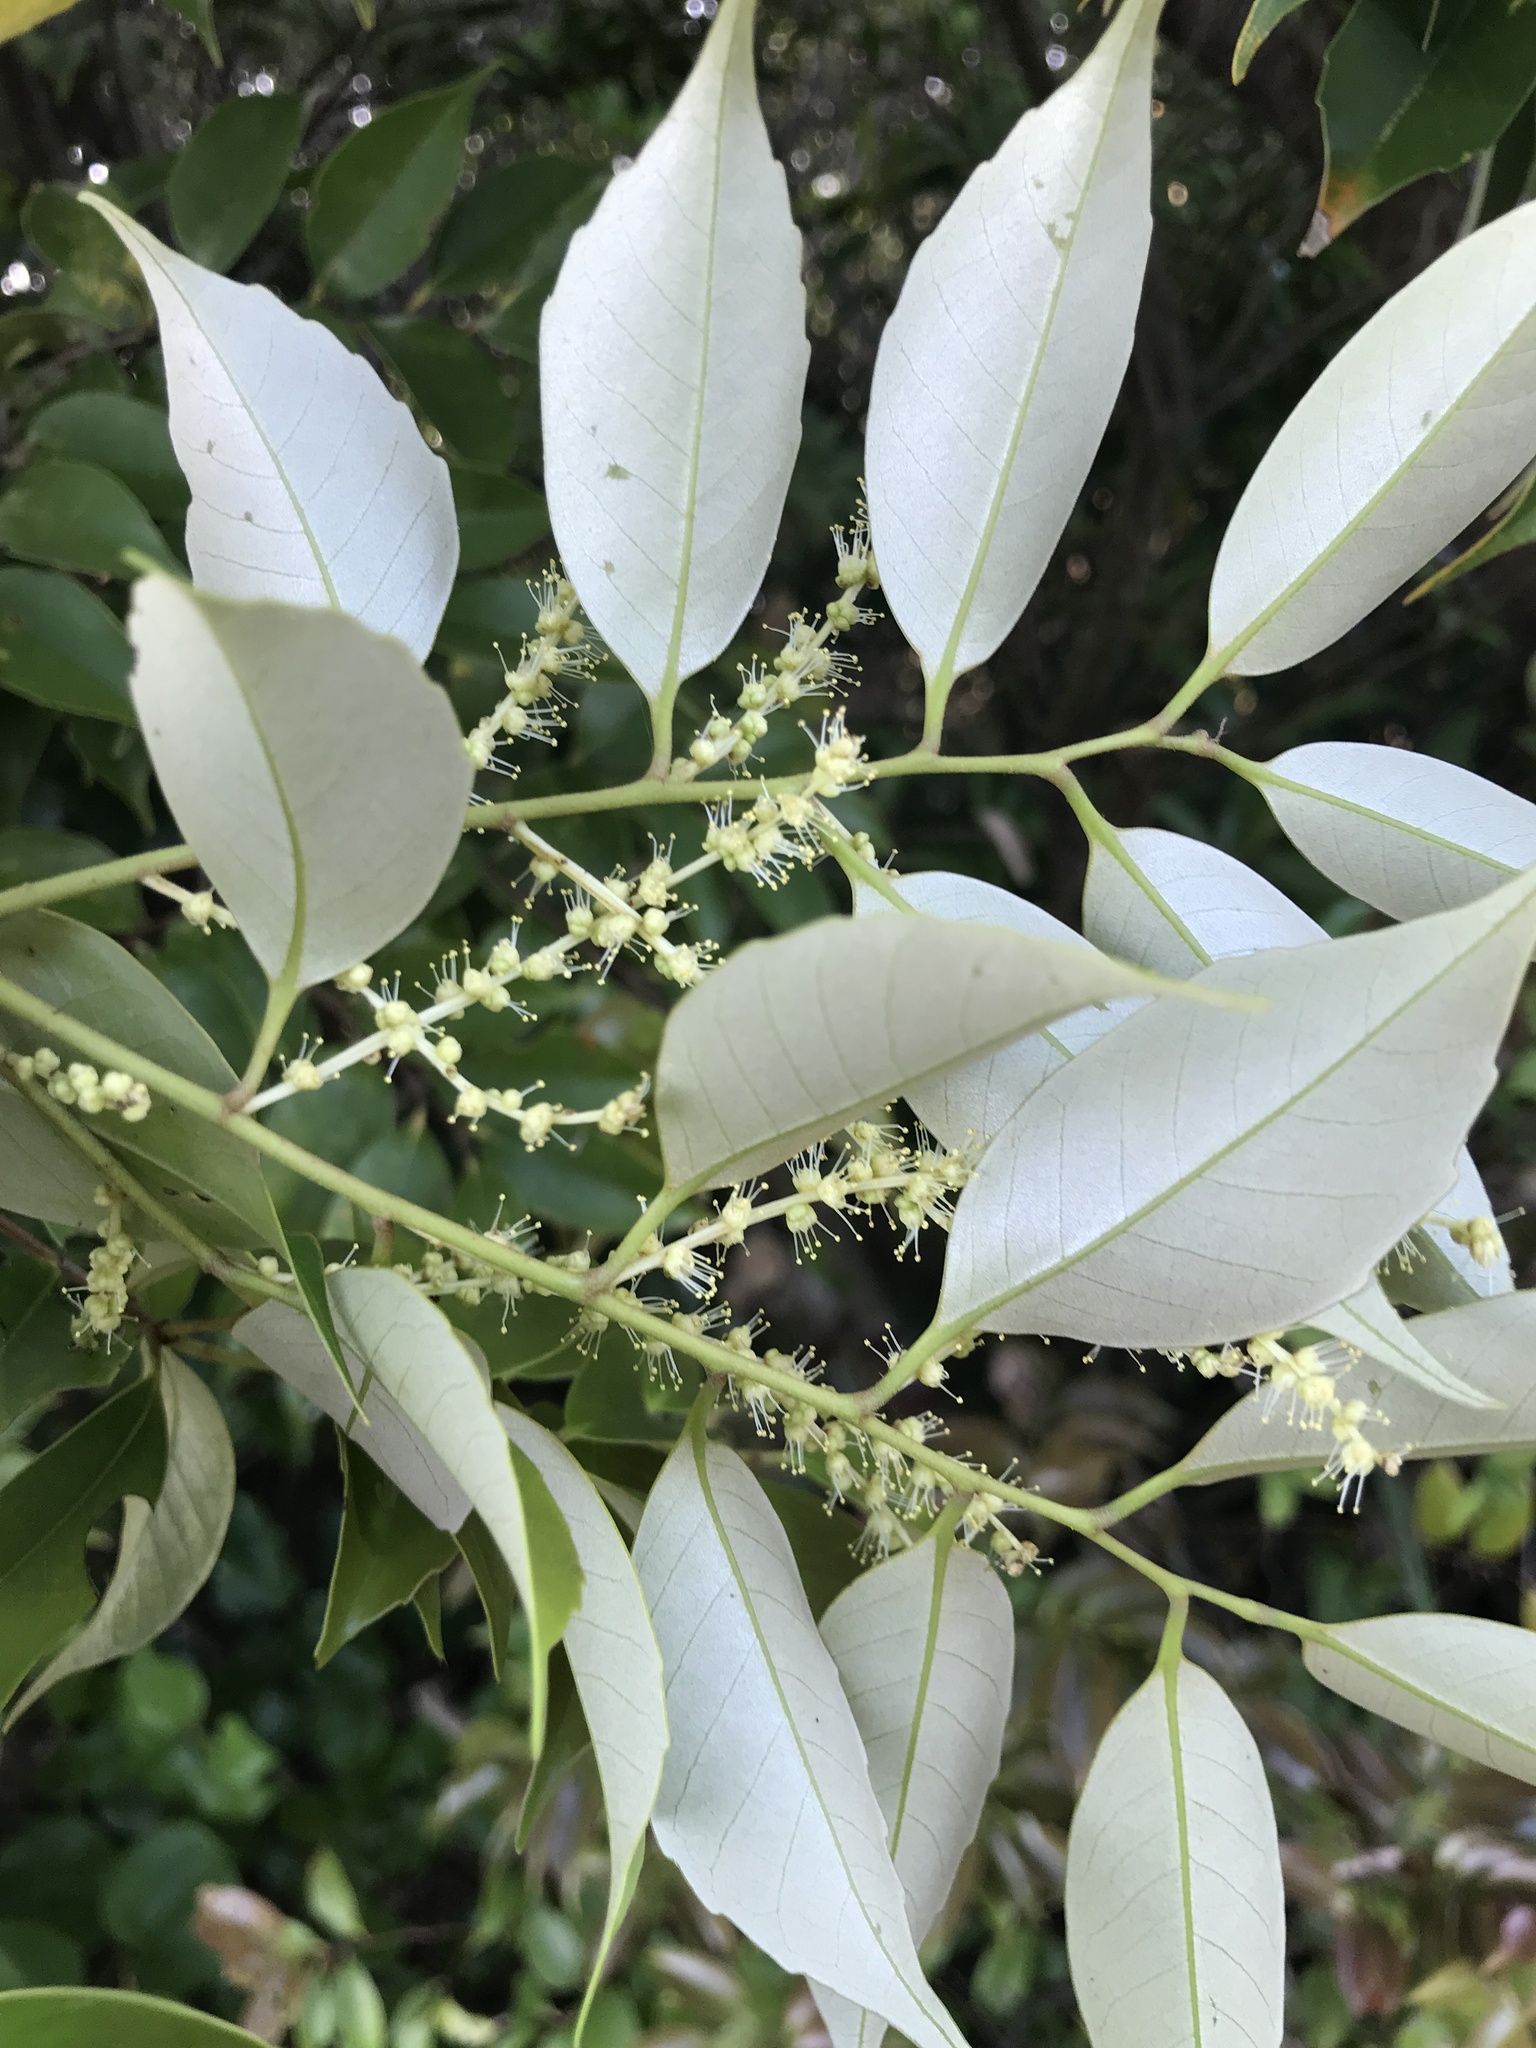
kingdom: Plantae
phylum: Tracheophyta
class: Magnoliopsida
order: Fagales
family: Fagaceae
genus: Castanopsis
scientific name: Castanopsis sieboldii
